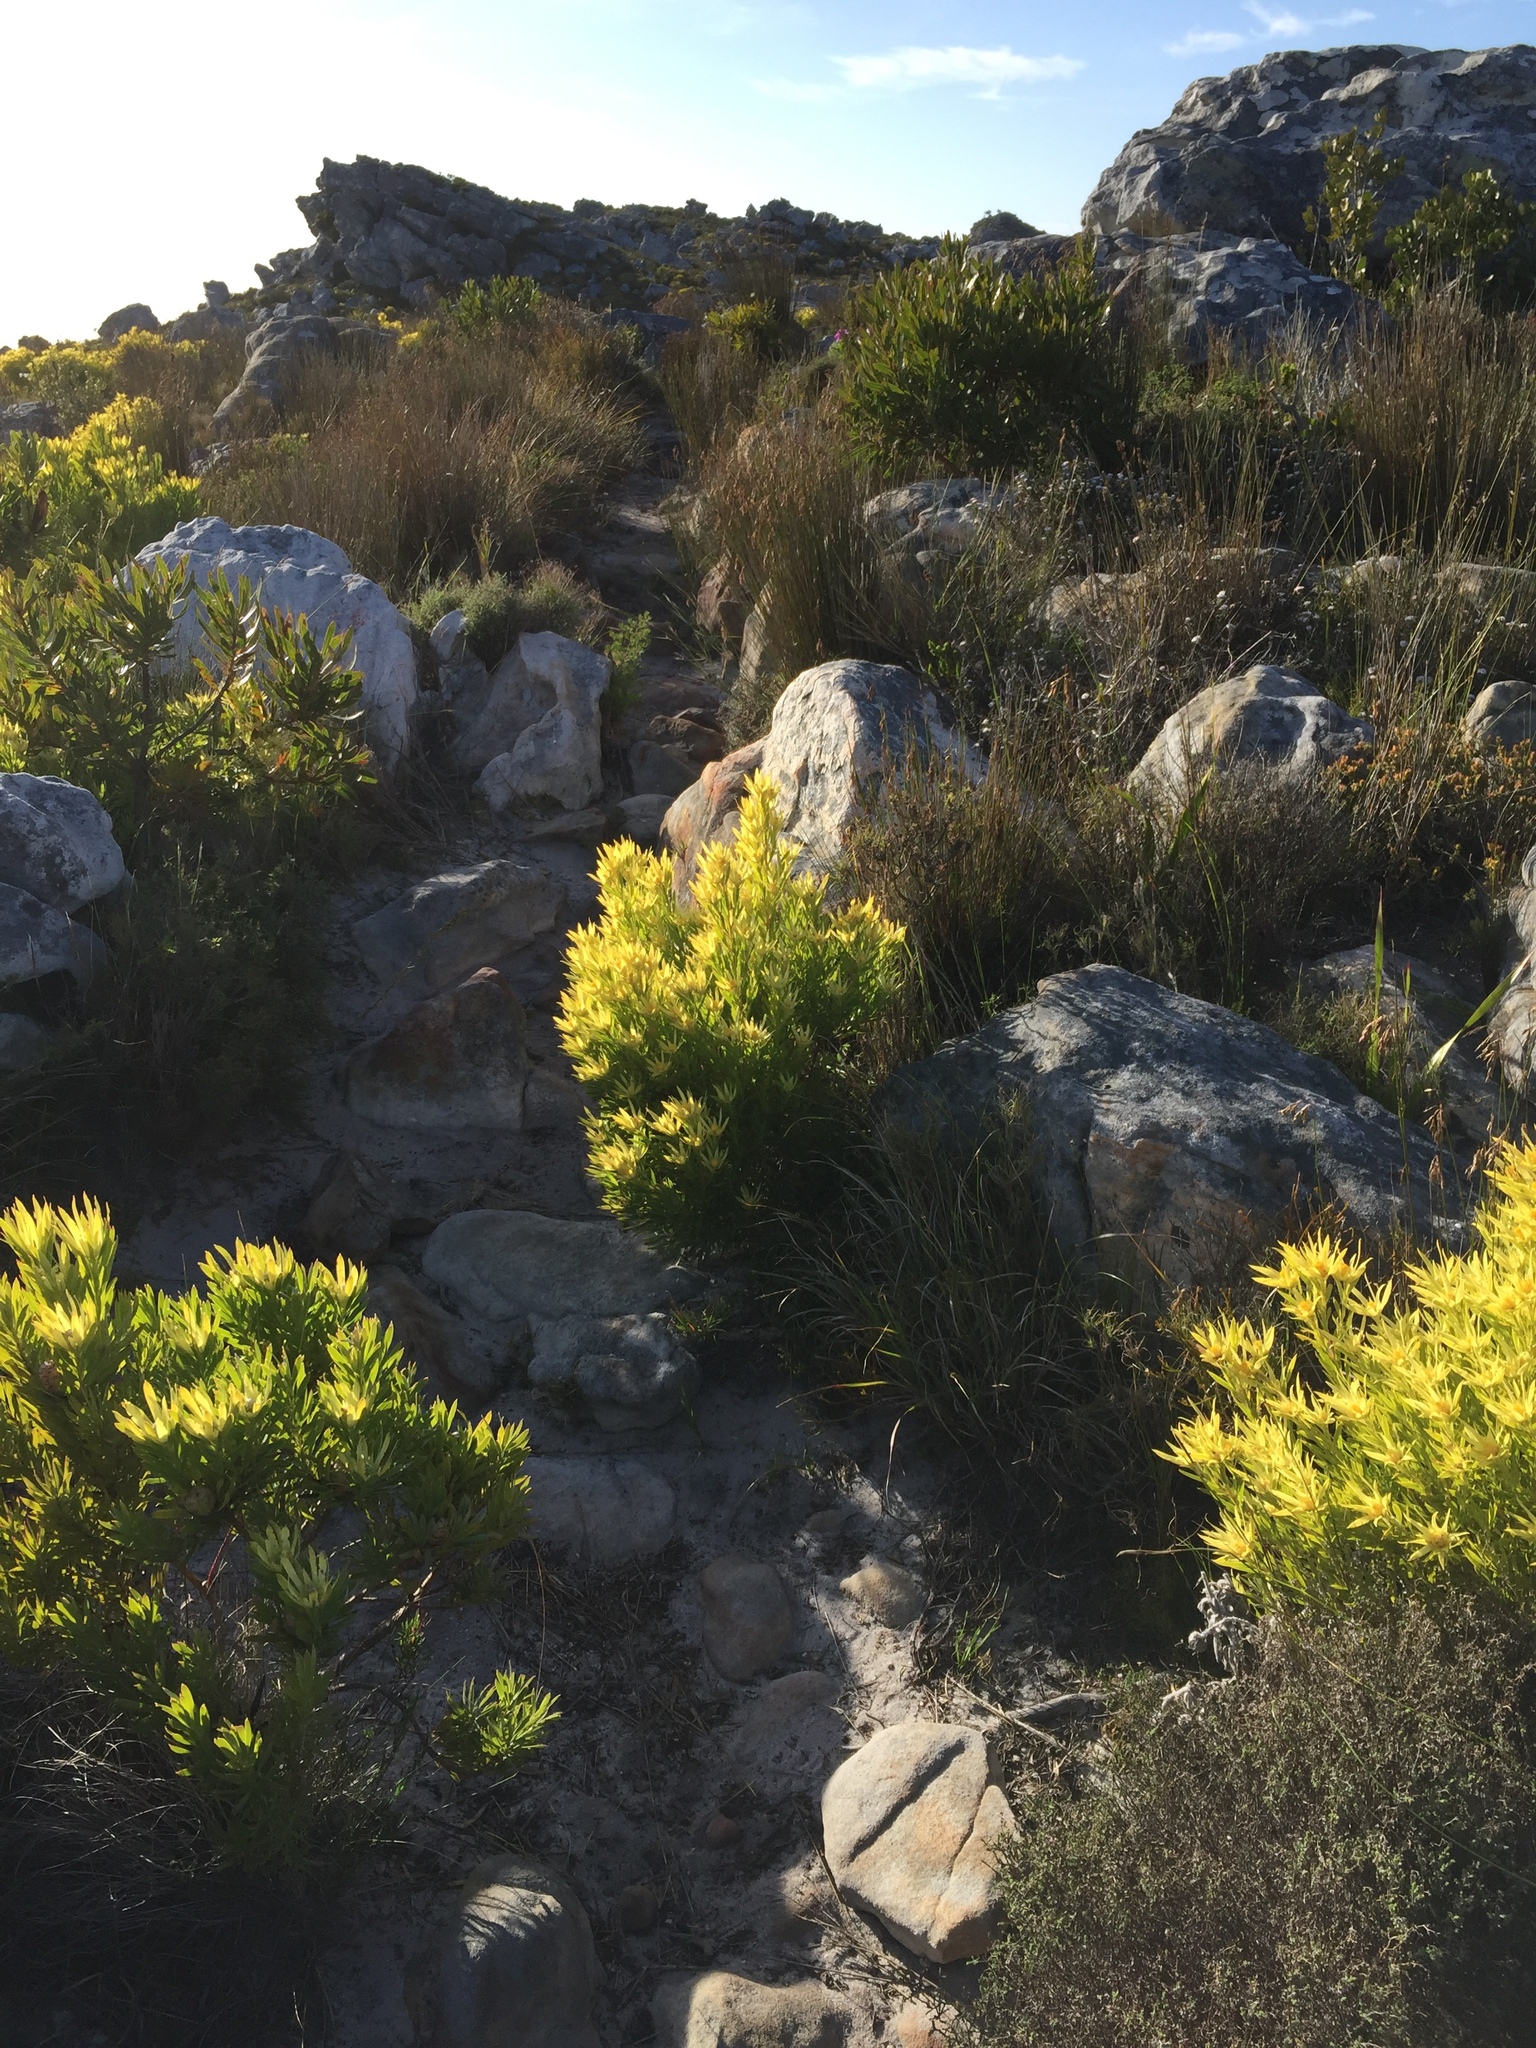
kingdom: Plantae
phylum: Tracheophyta
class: Magnoliopsida
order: Proteales
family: Proteaceae
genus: Leucadendron
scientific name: Leucadendron xanthoconus
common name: Sickle-leaf conebush
